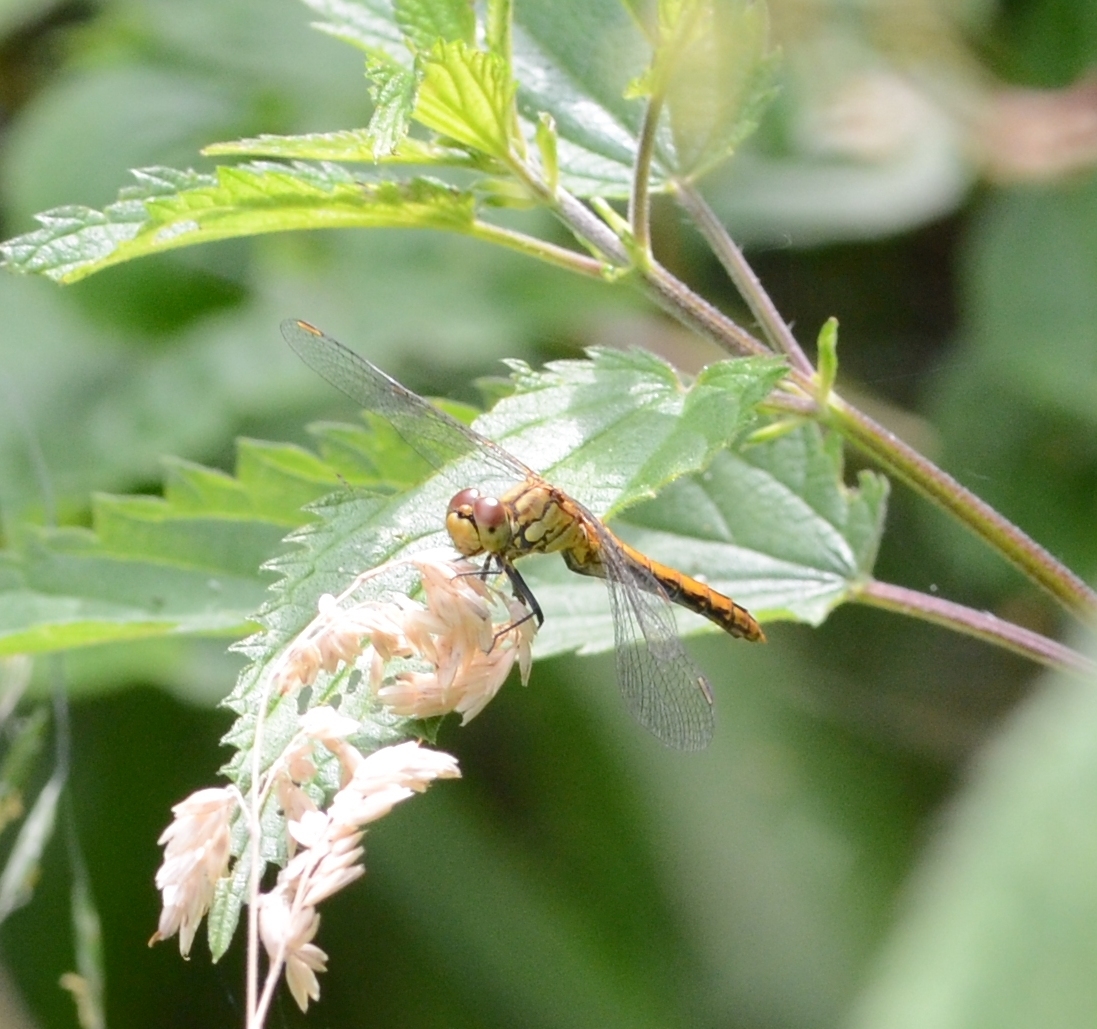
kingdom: Animalia
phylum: Arthropoda
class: Insecta
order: Odonata
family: Libellulidae
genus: Sympetrum
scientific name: Sympetrum sanguineum
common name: Ruddy darter
